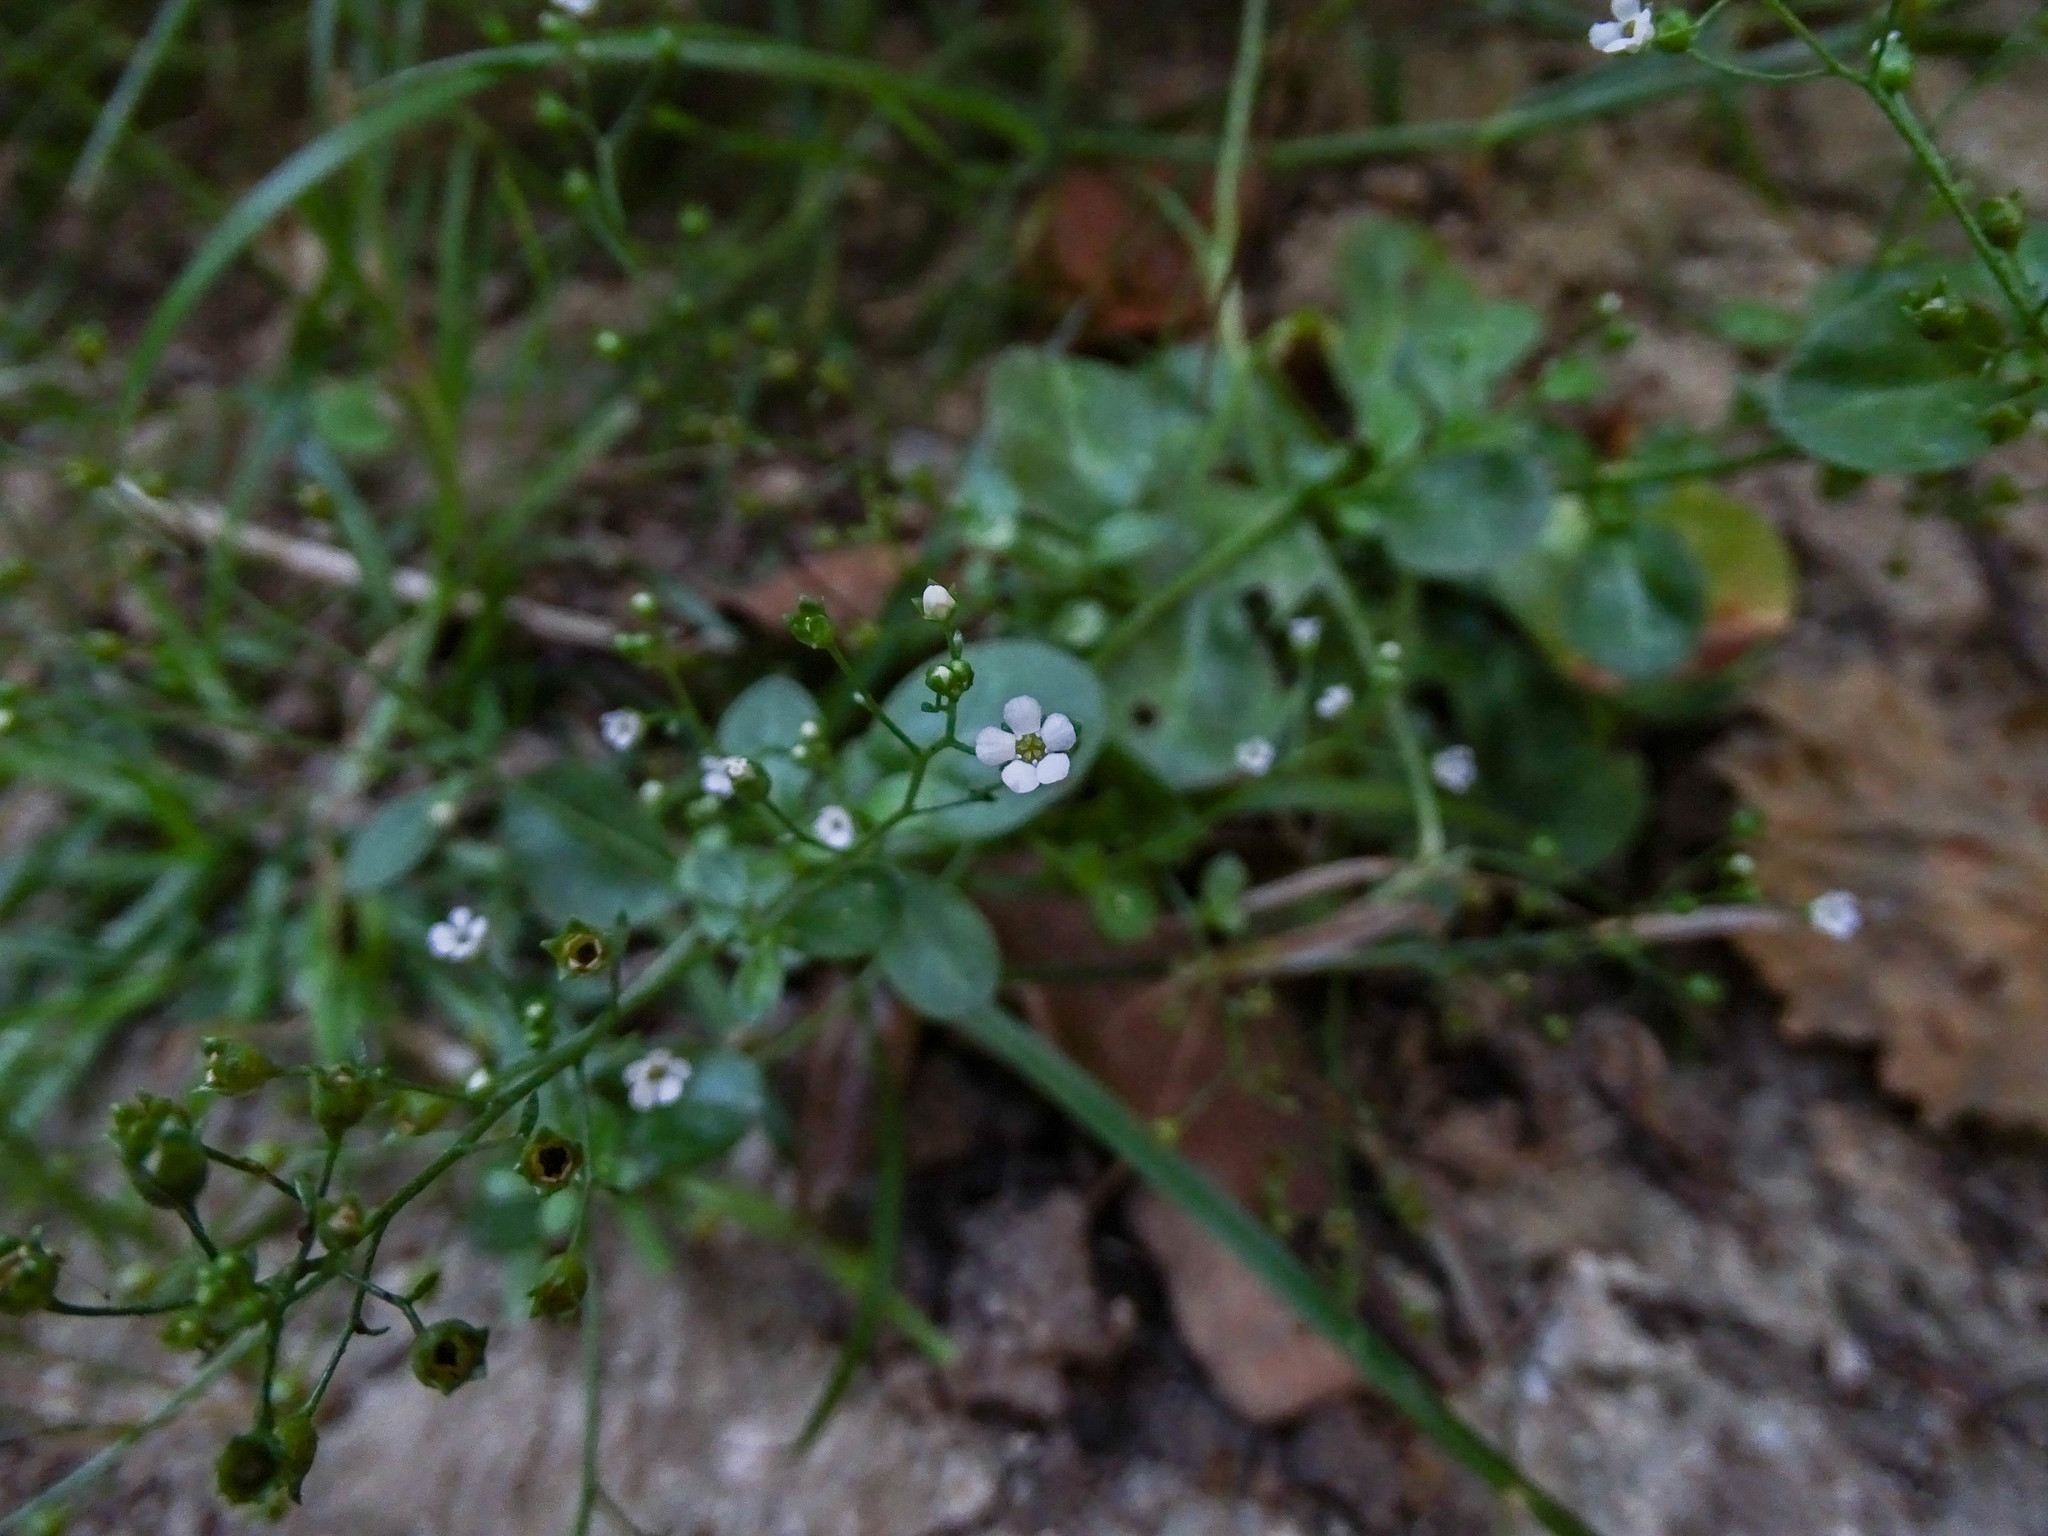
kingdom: Plantae
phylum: Tracheophyta
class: Magnoliopsida
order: Ericales
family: Primulaceae
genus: Samolus
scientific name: Samolus valerandi
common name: Brookweed
